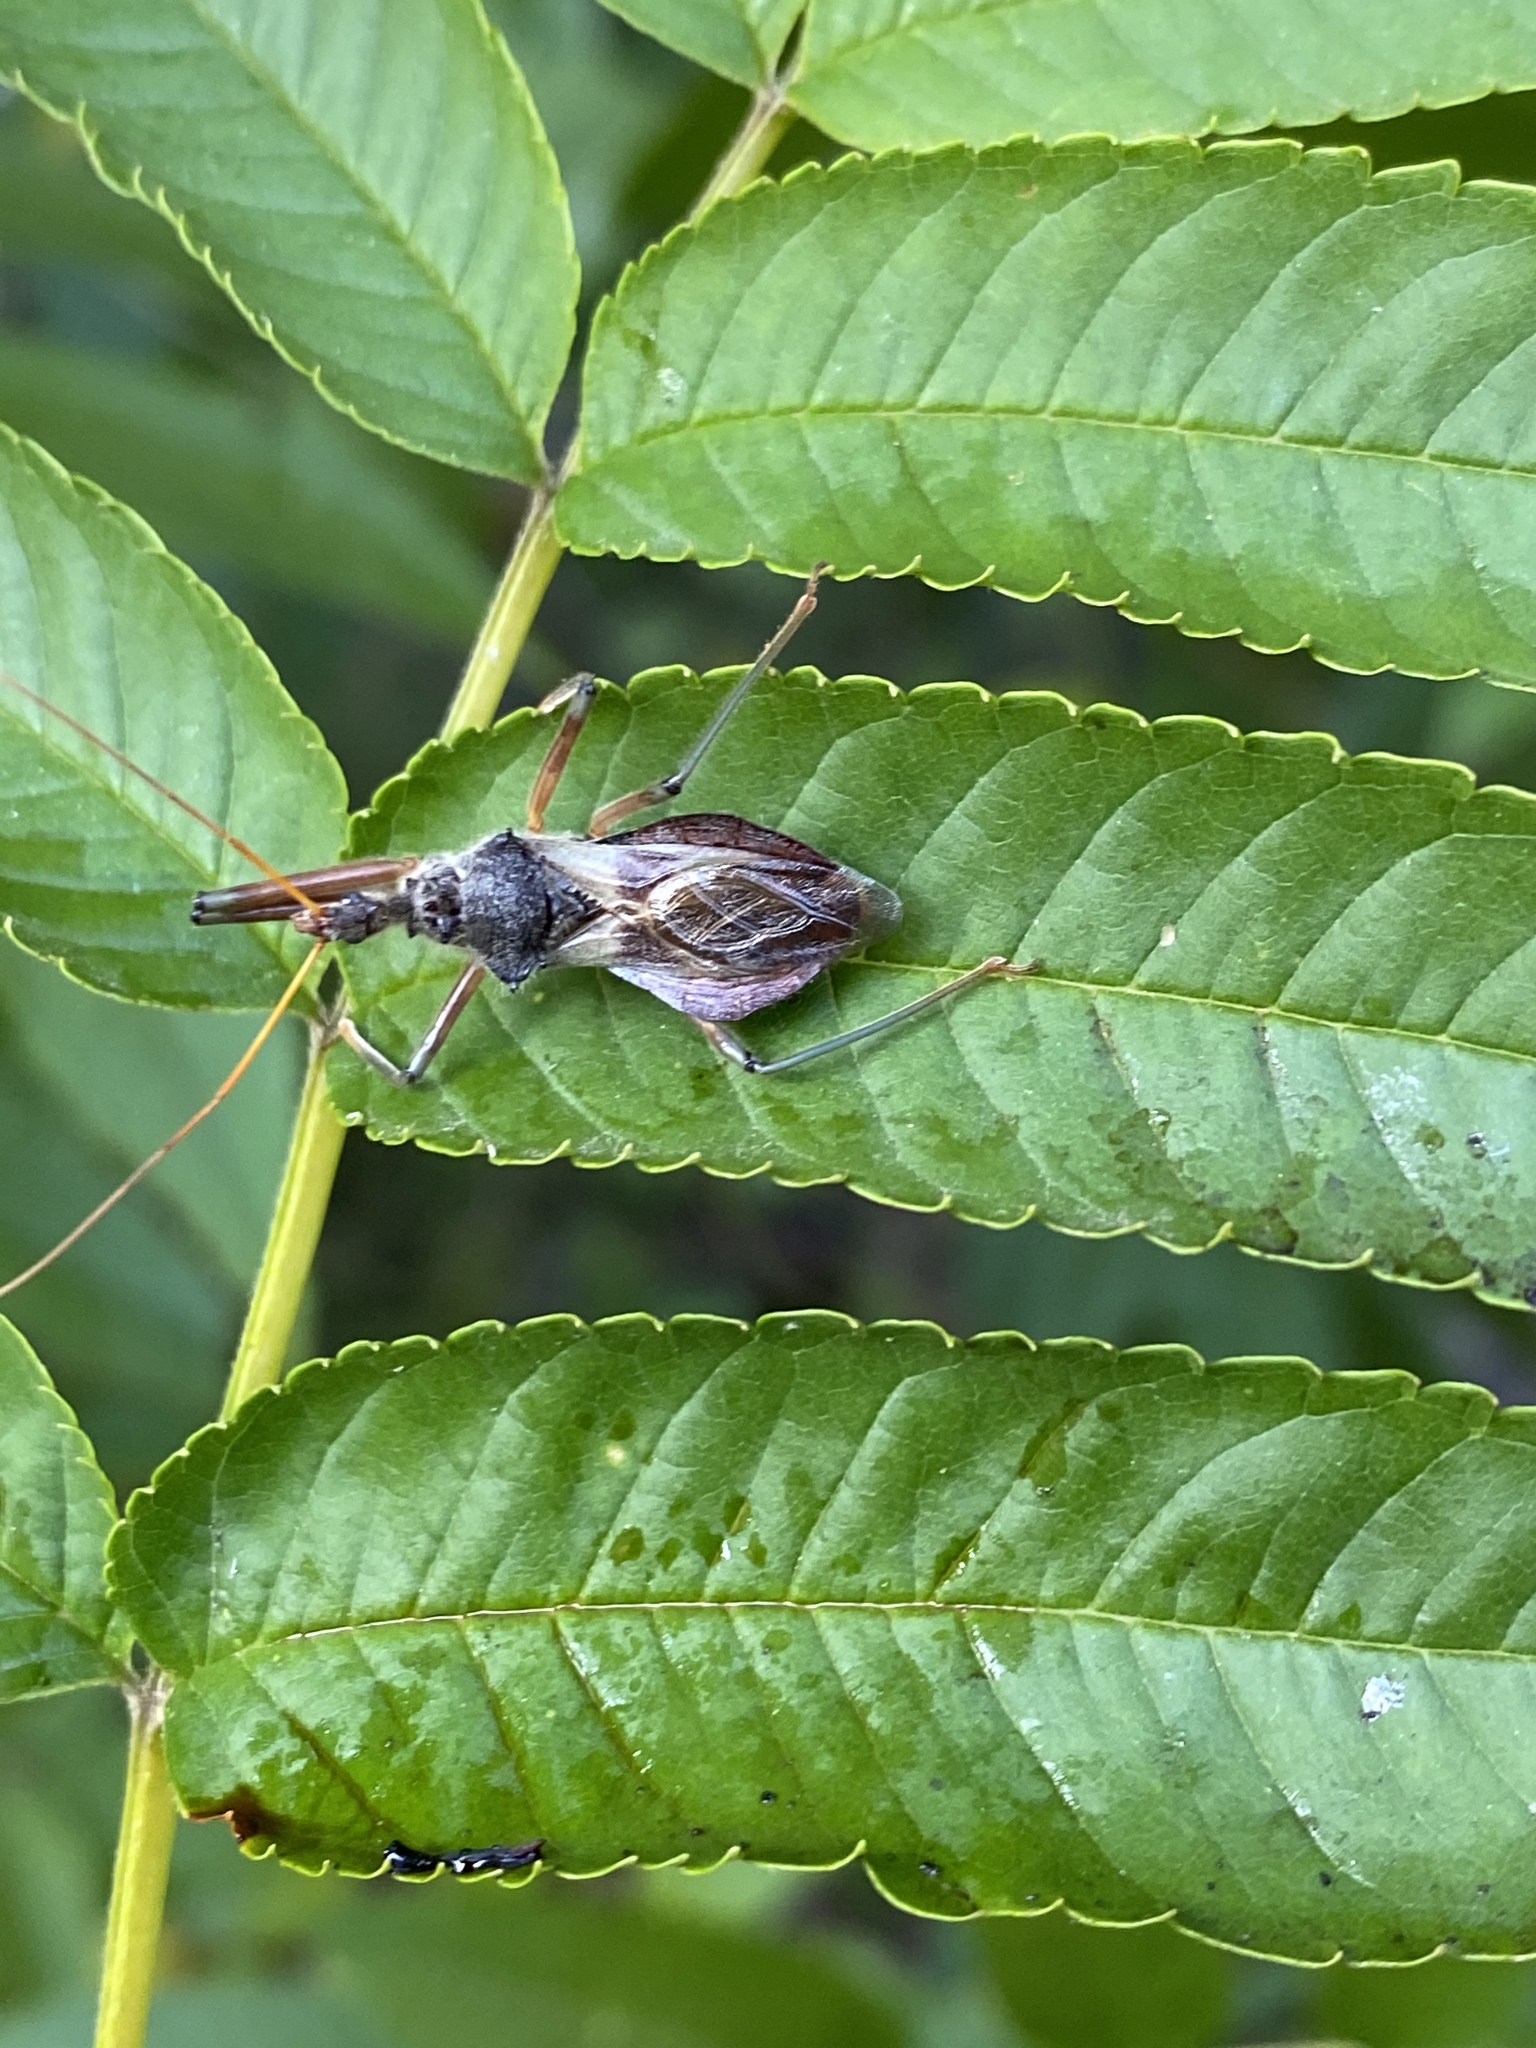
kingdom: Animalia
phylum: Arthropoda
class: Insecta
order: Hemiptera
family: Reduviidae
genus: Pristhesancus
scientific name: Pristhesancus plagipennis
